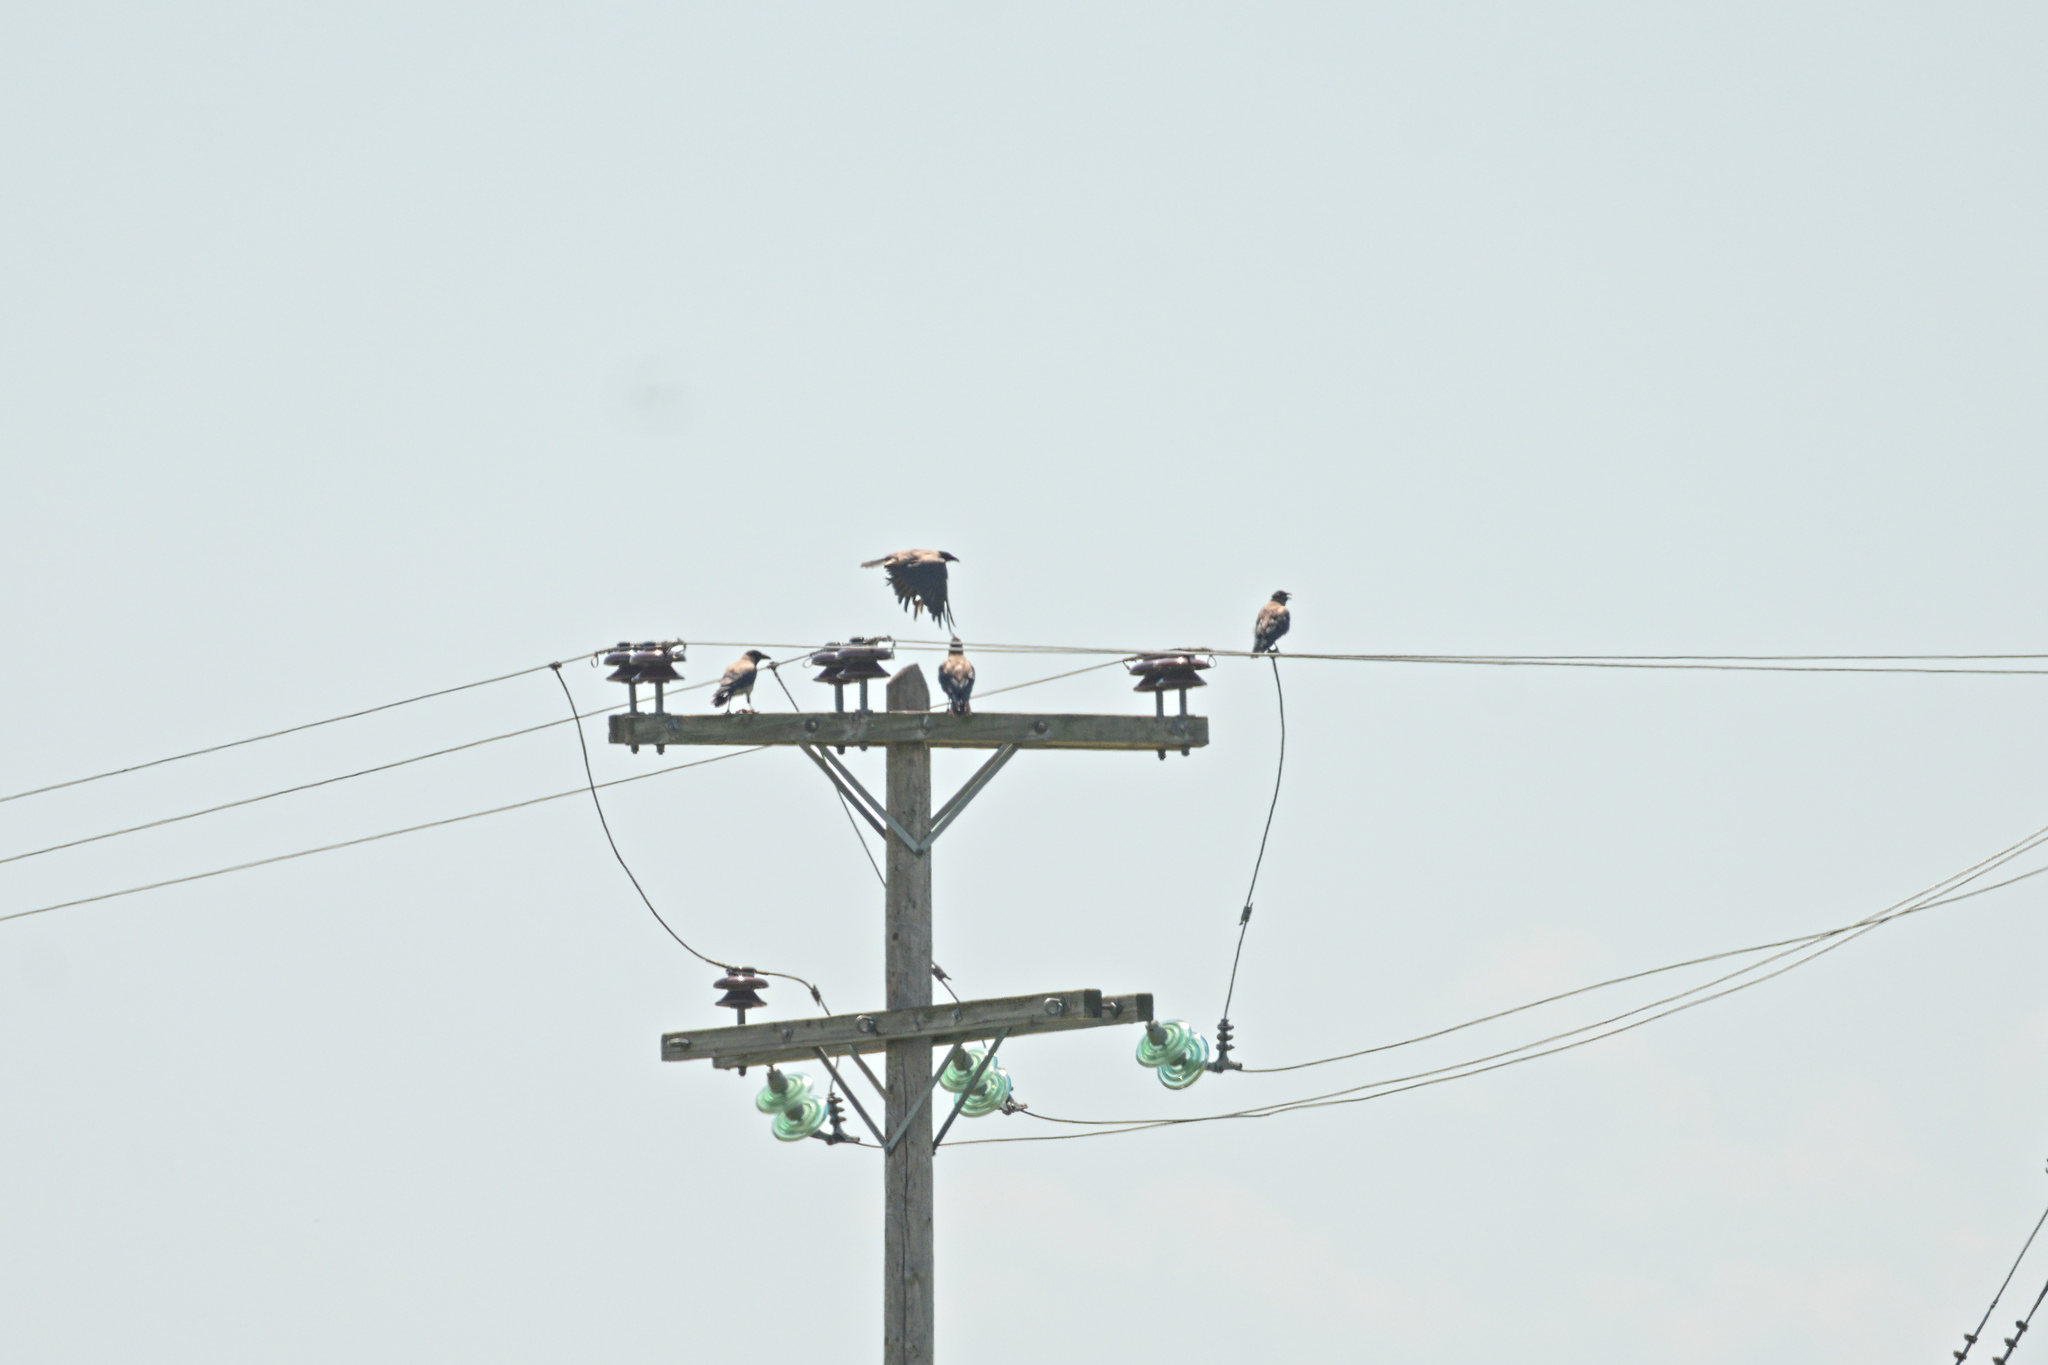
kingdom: Animalia
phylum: Chordata
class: Aves
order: Passeriformes
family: Corvidae
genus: Corvus
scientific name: Corvus cornix
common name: Hooded crow
